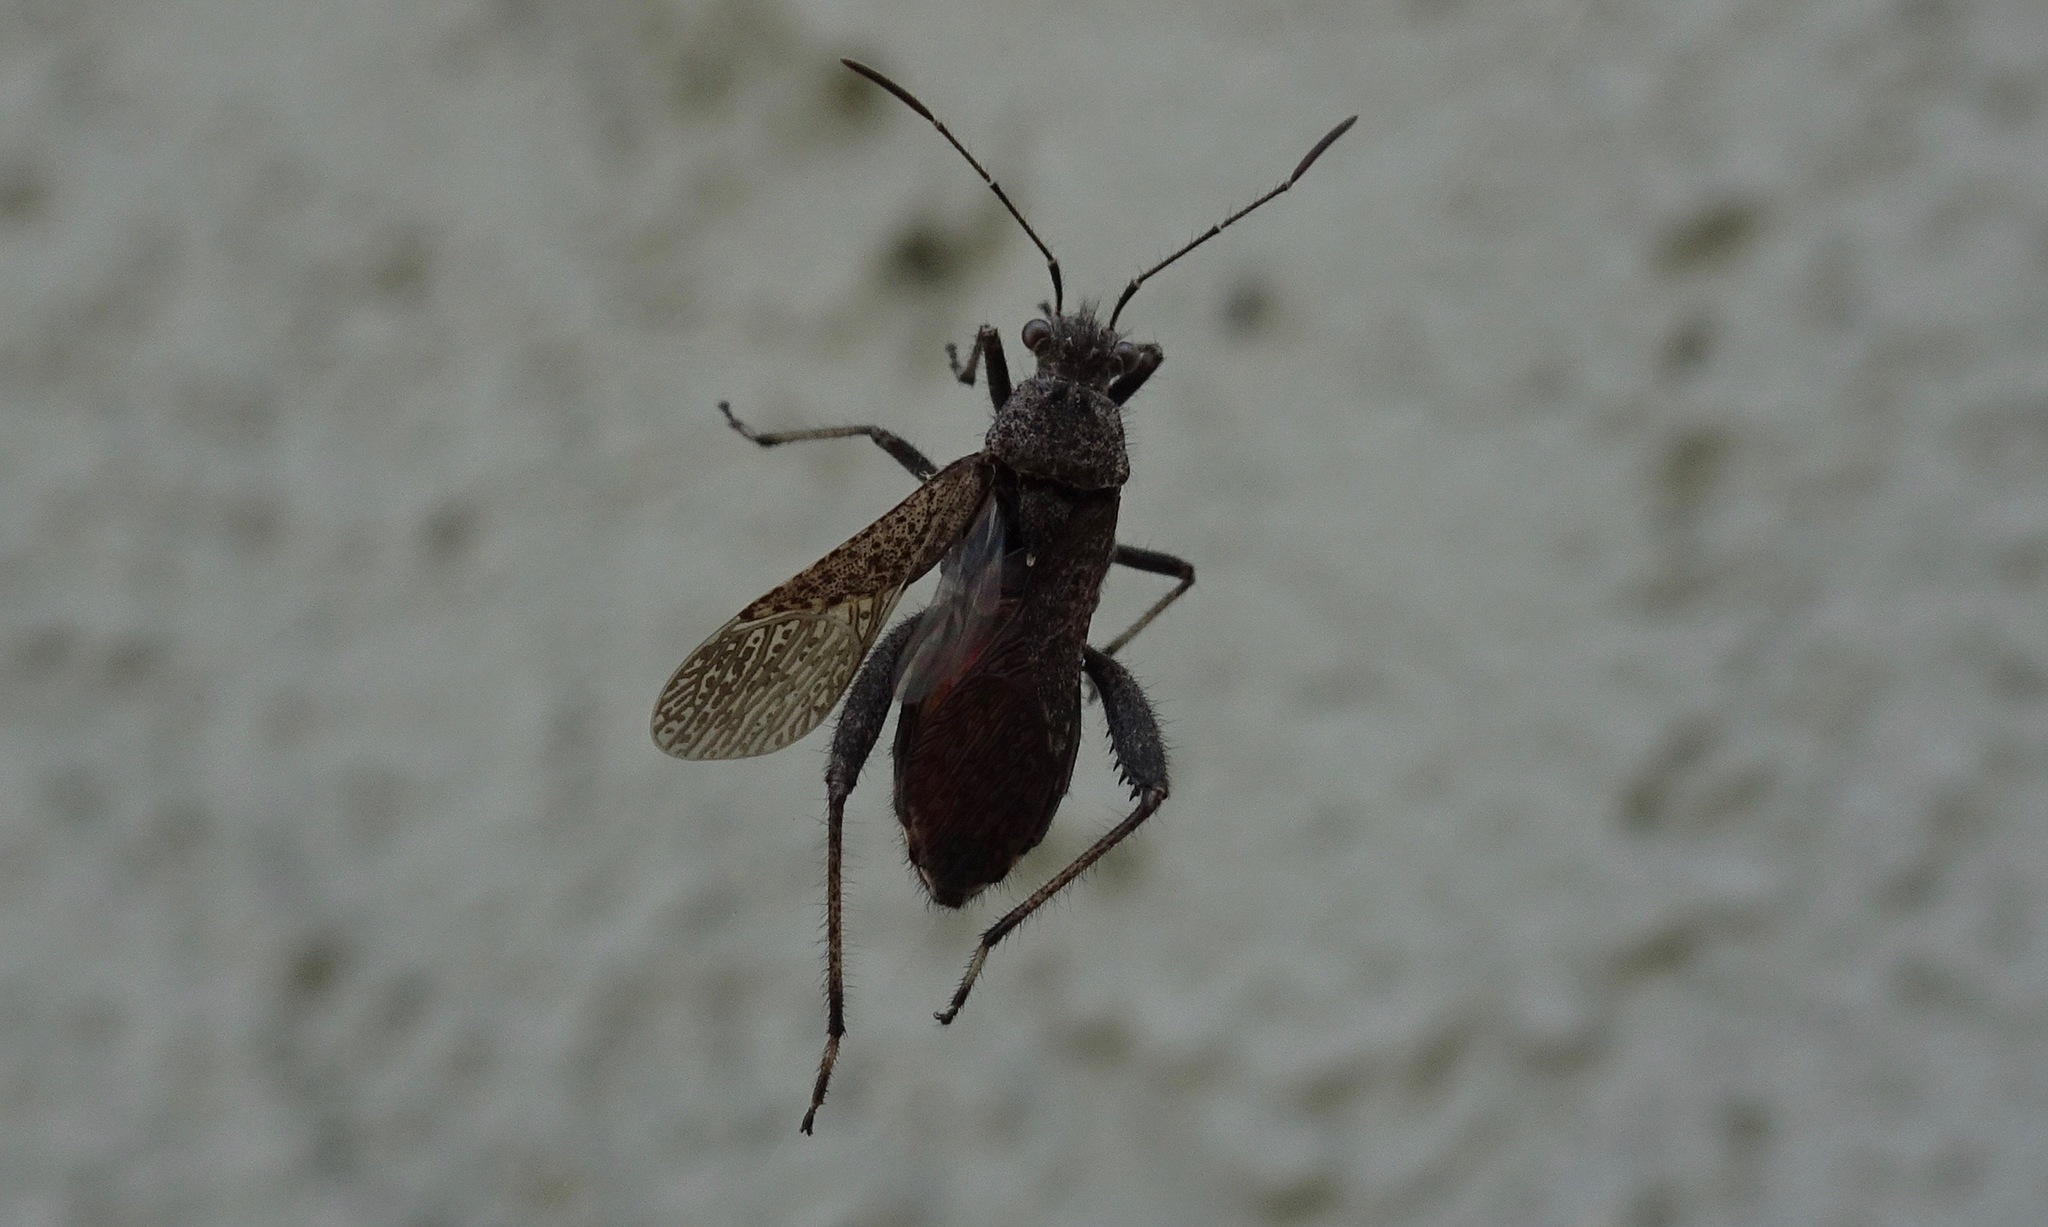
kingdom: Animalia
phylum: Arthropoda
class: Insecta
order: Hemiptera
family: Alydidae
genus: Tollius
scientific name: Tollius curtulus
